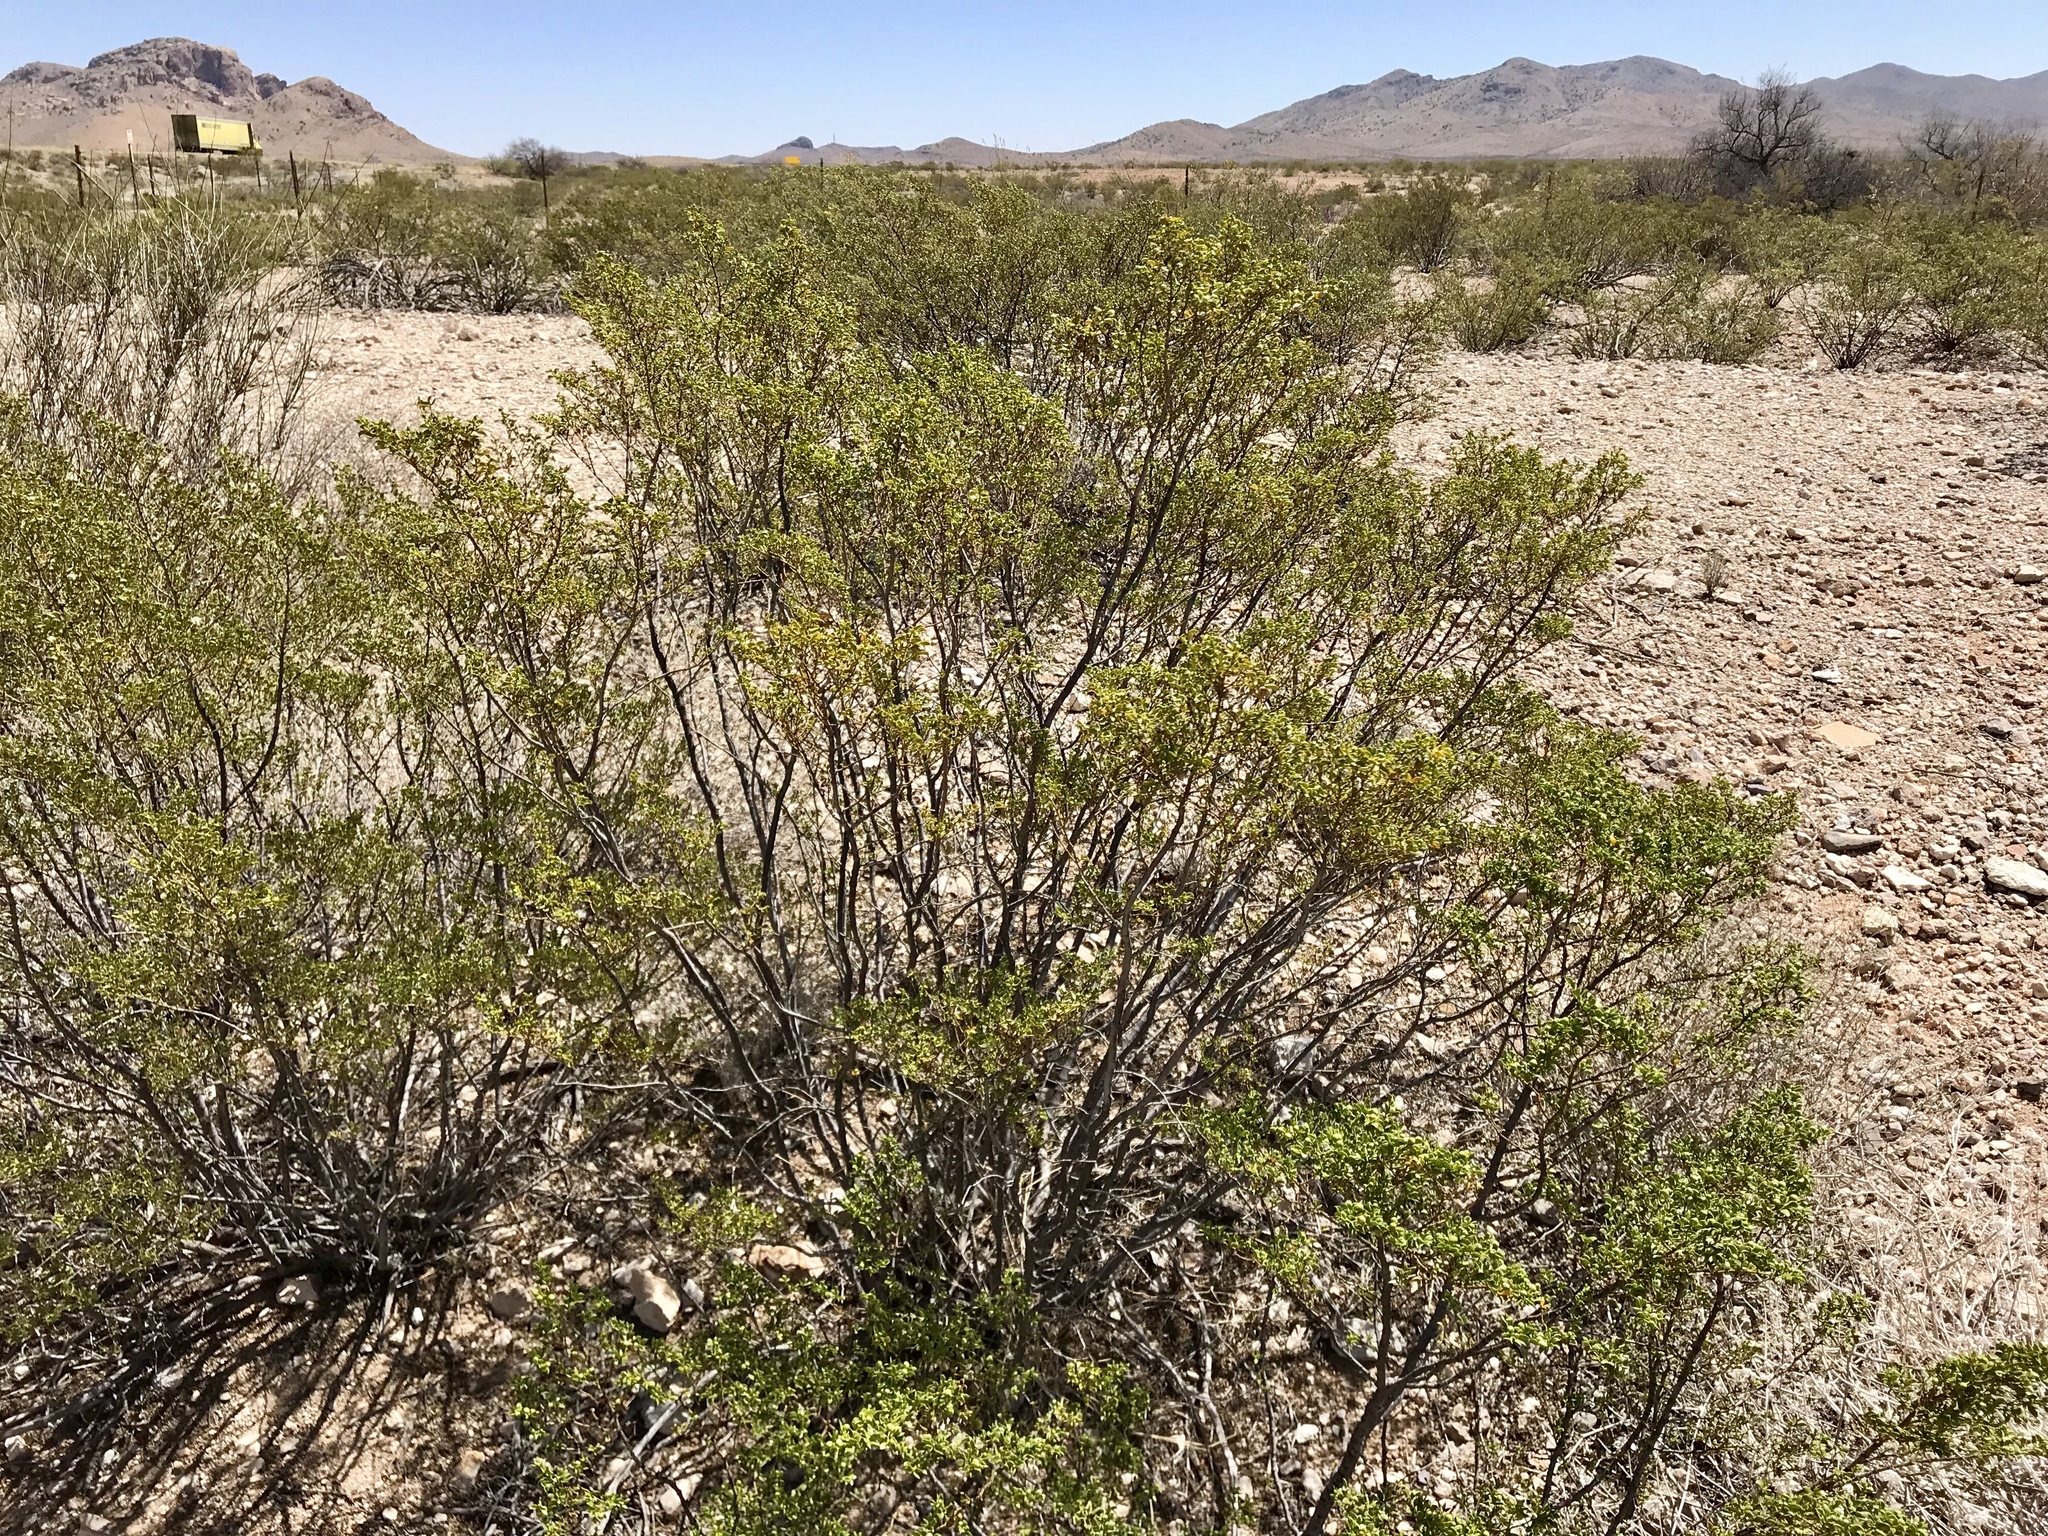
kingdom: Plantae
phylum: Tracheophyta
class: Magnoliopsida
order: Zygophyllales
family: Zygophyllaceae
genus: Larrea
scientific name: Larrea tridentata
